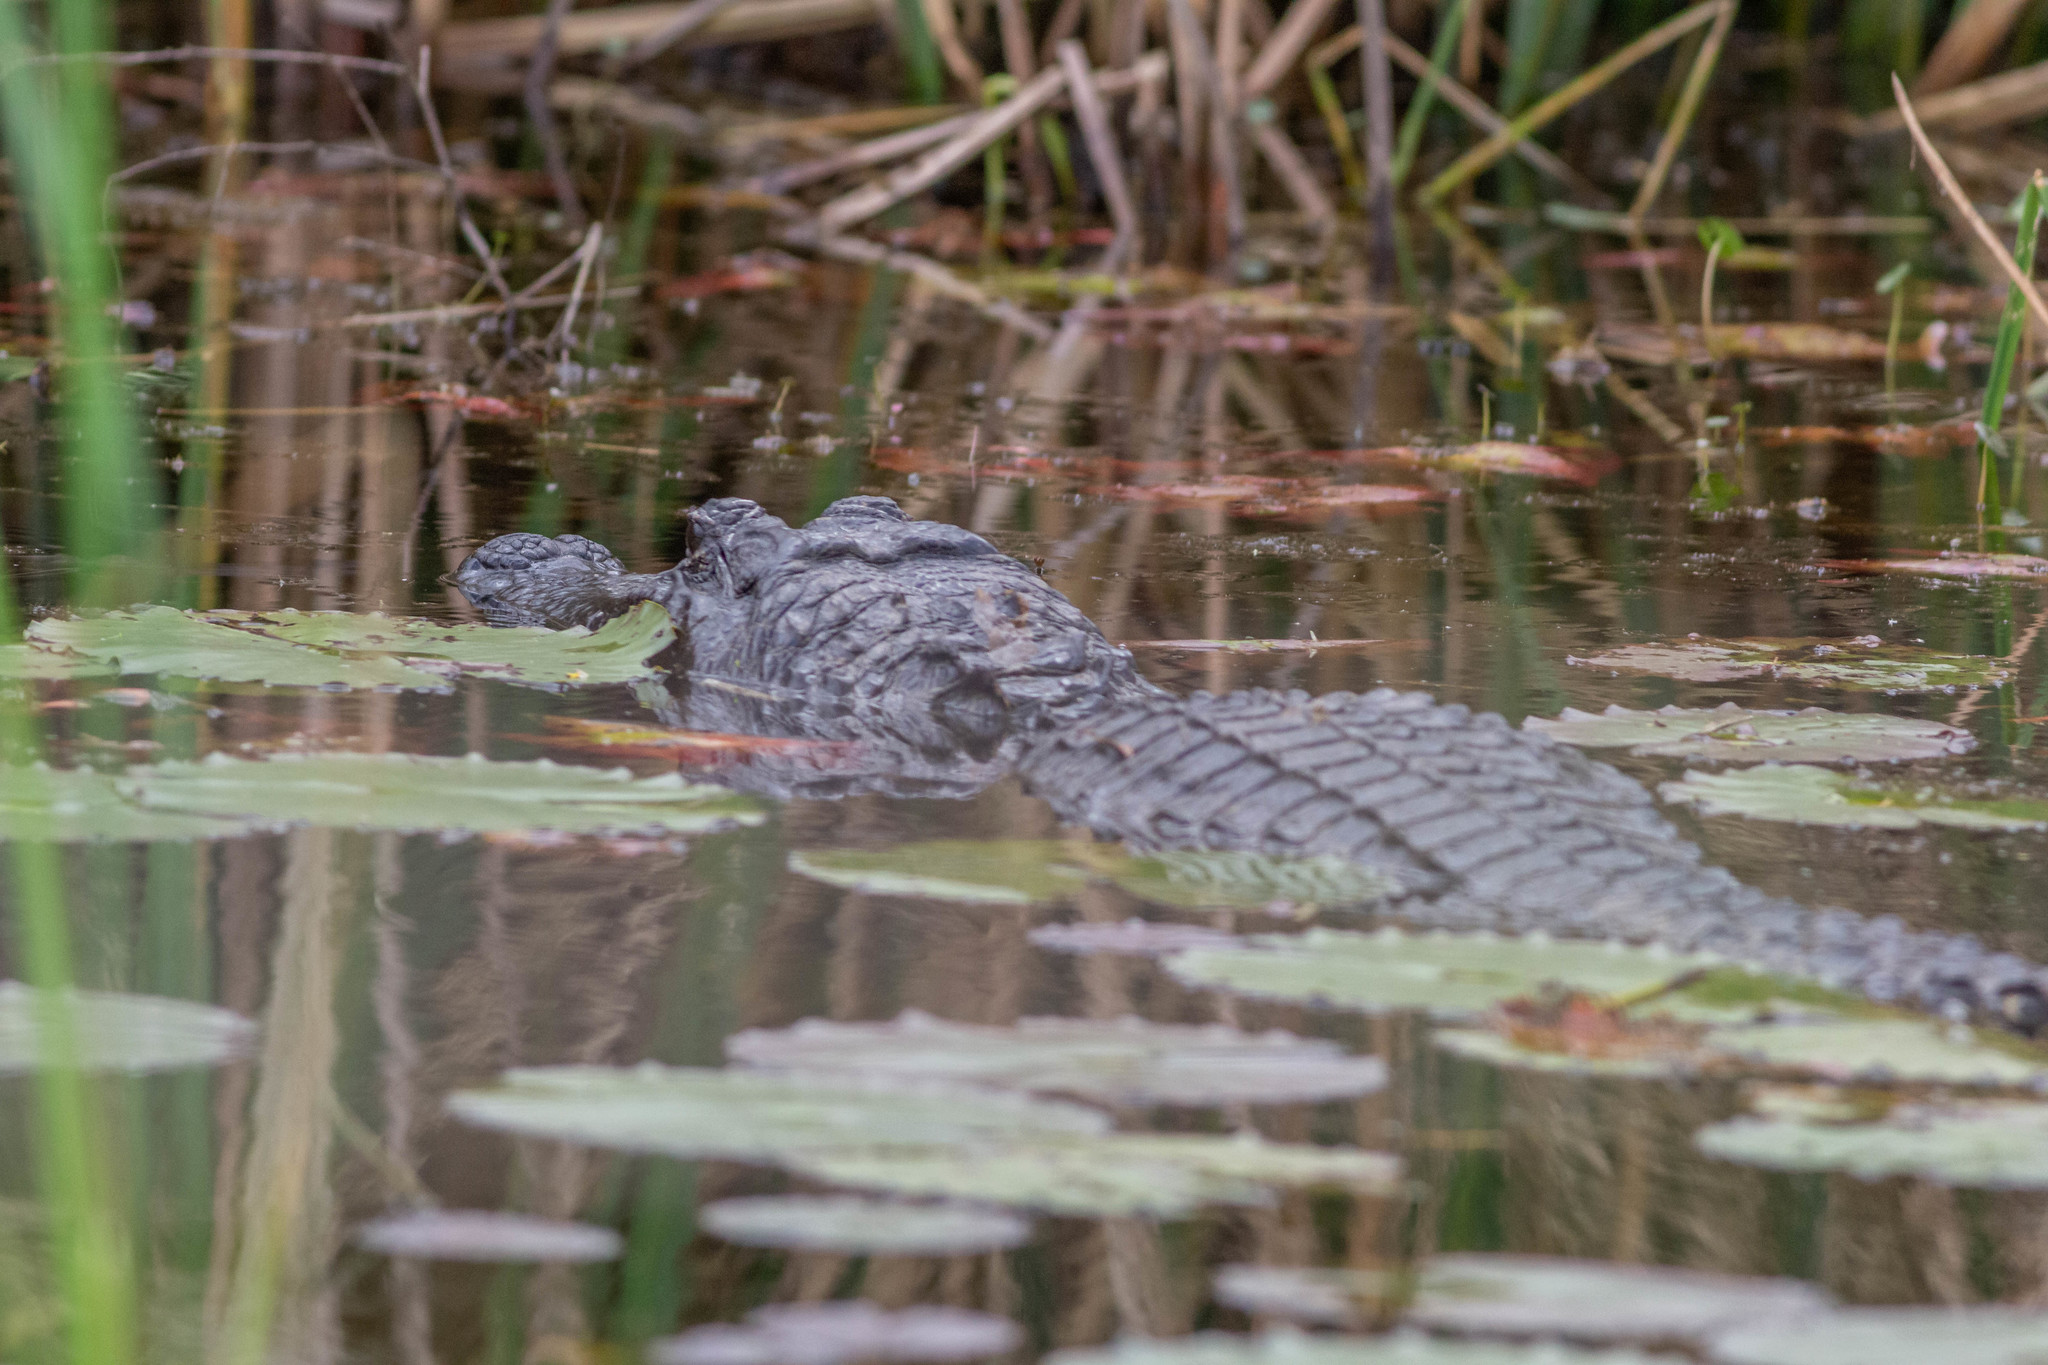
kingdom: Animalia
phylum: Chordata
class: Crocodylia
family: Alligatoridae
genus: Alligator
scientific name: Alligator mississippiensis
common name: American alligator
